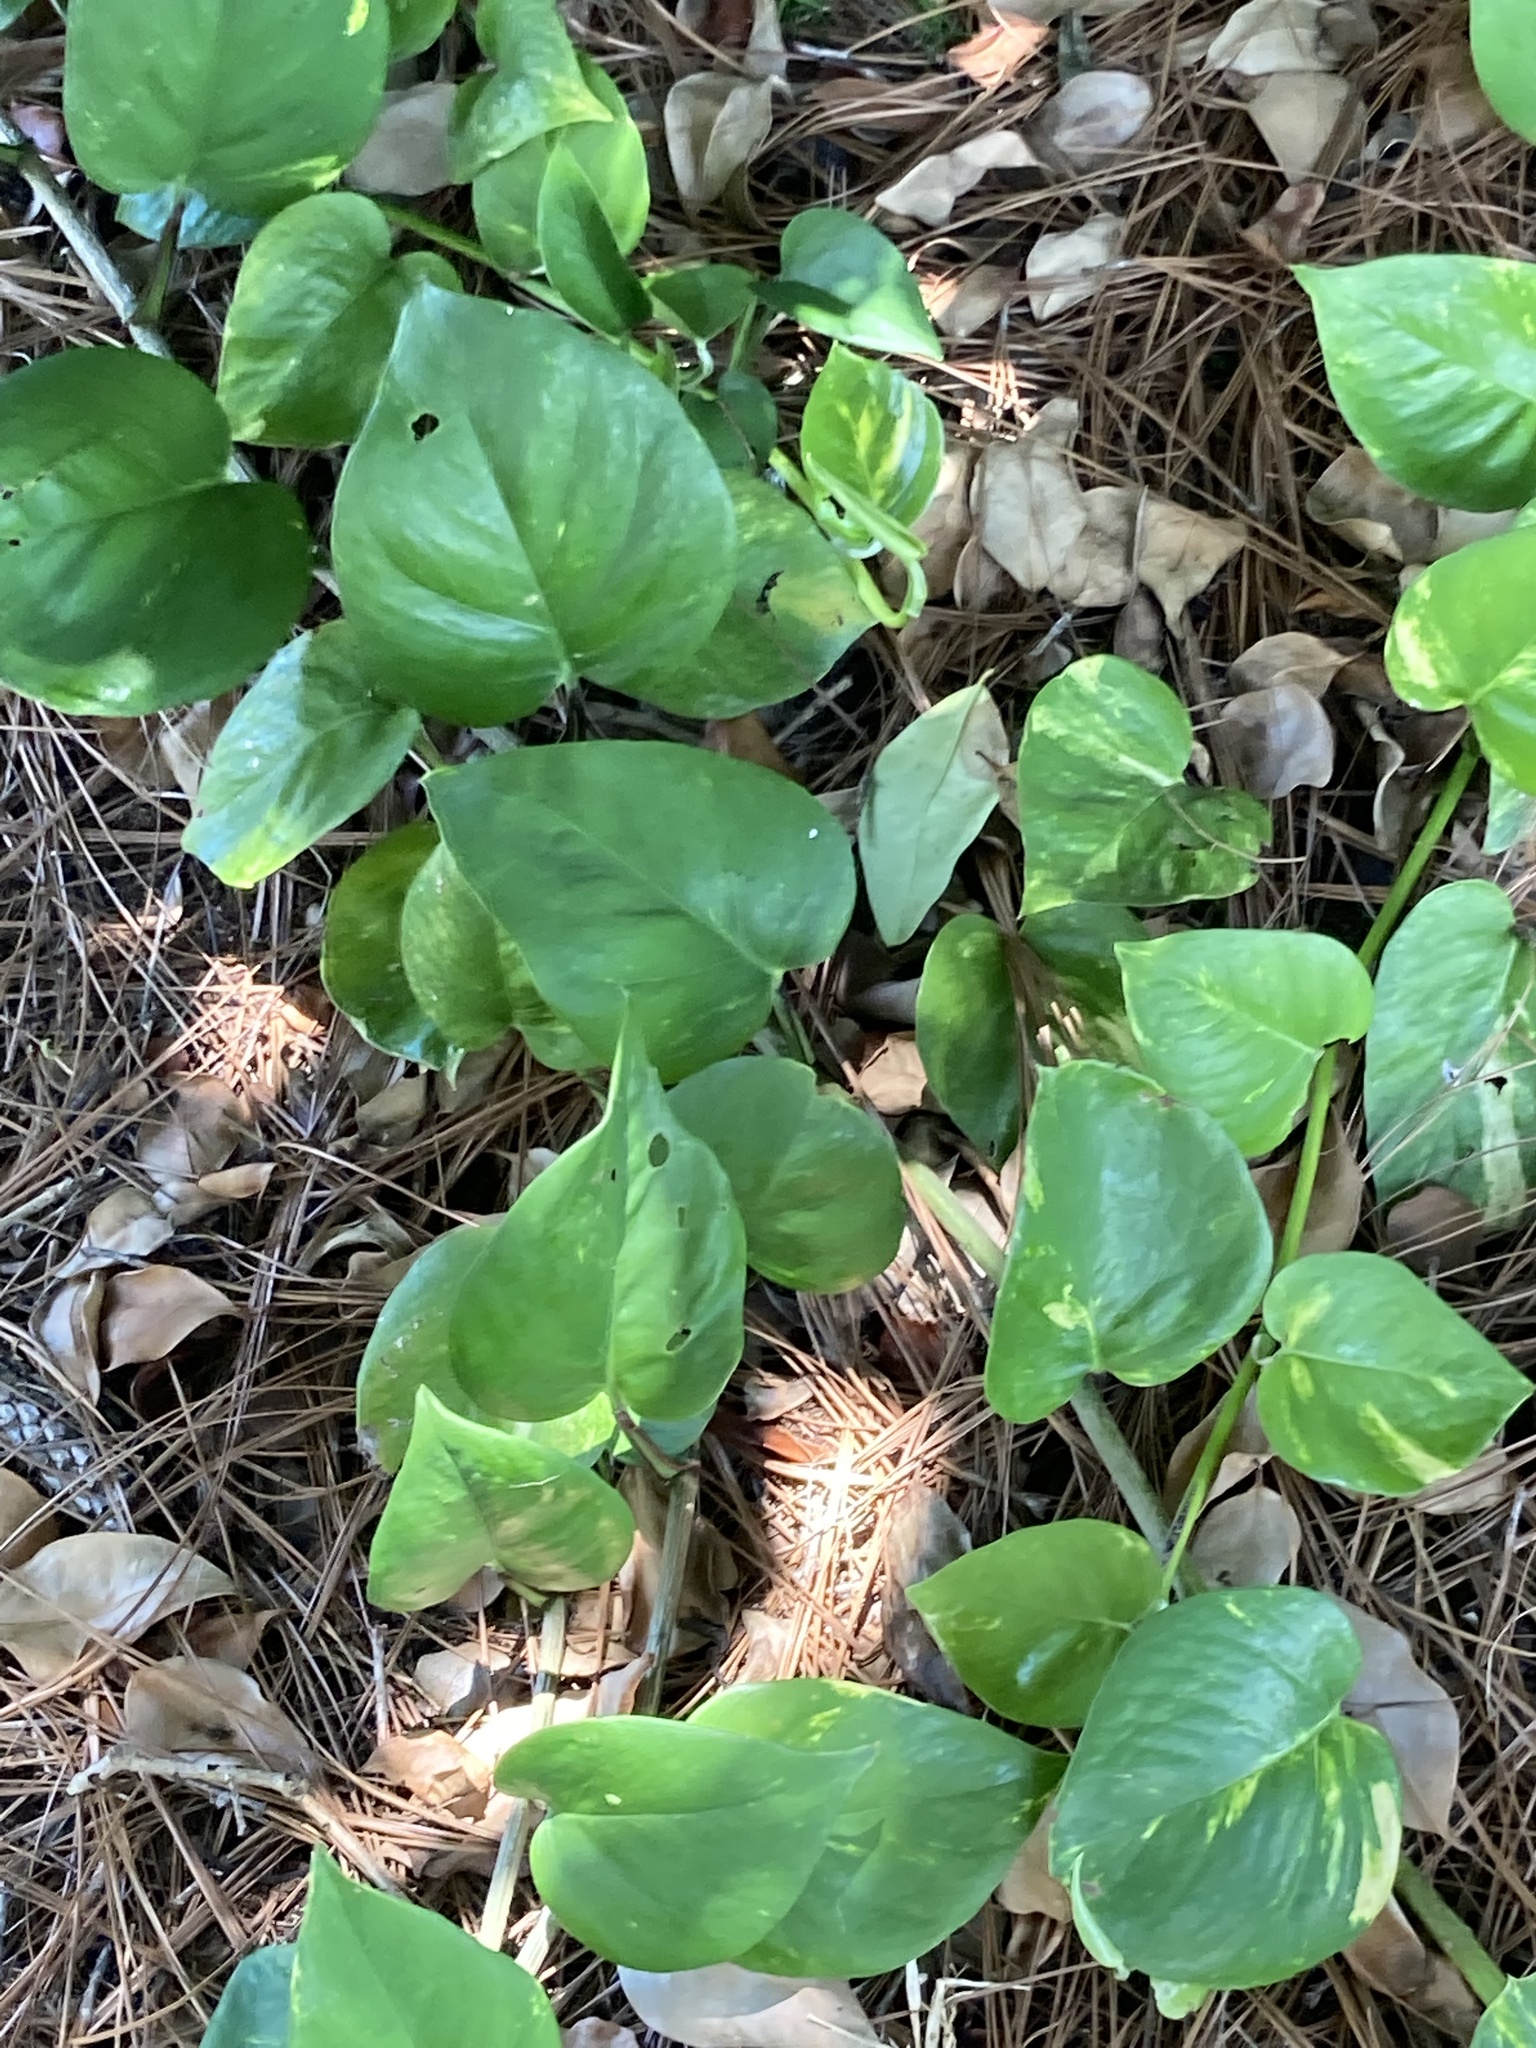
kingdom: Plantae
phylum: Tracheophyta
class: Liliopsida
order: Alismatales
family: Araceae
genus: Epipremnum
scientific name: Epipremnum aureum
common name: Golden hunter's-robe
